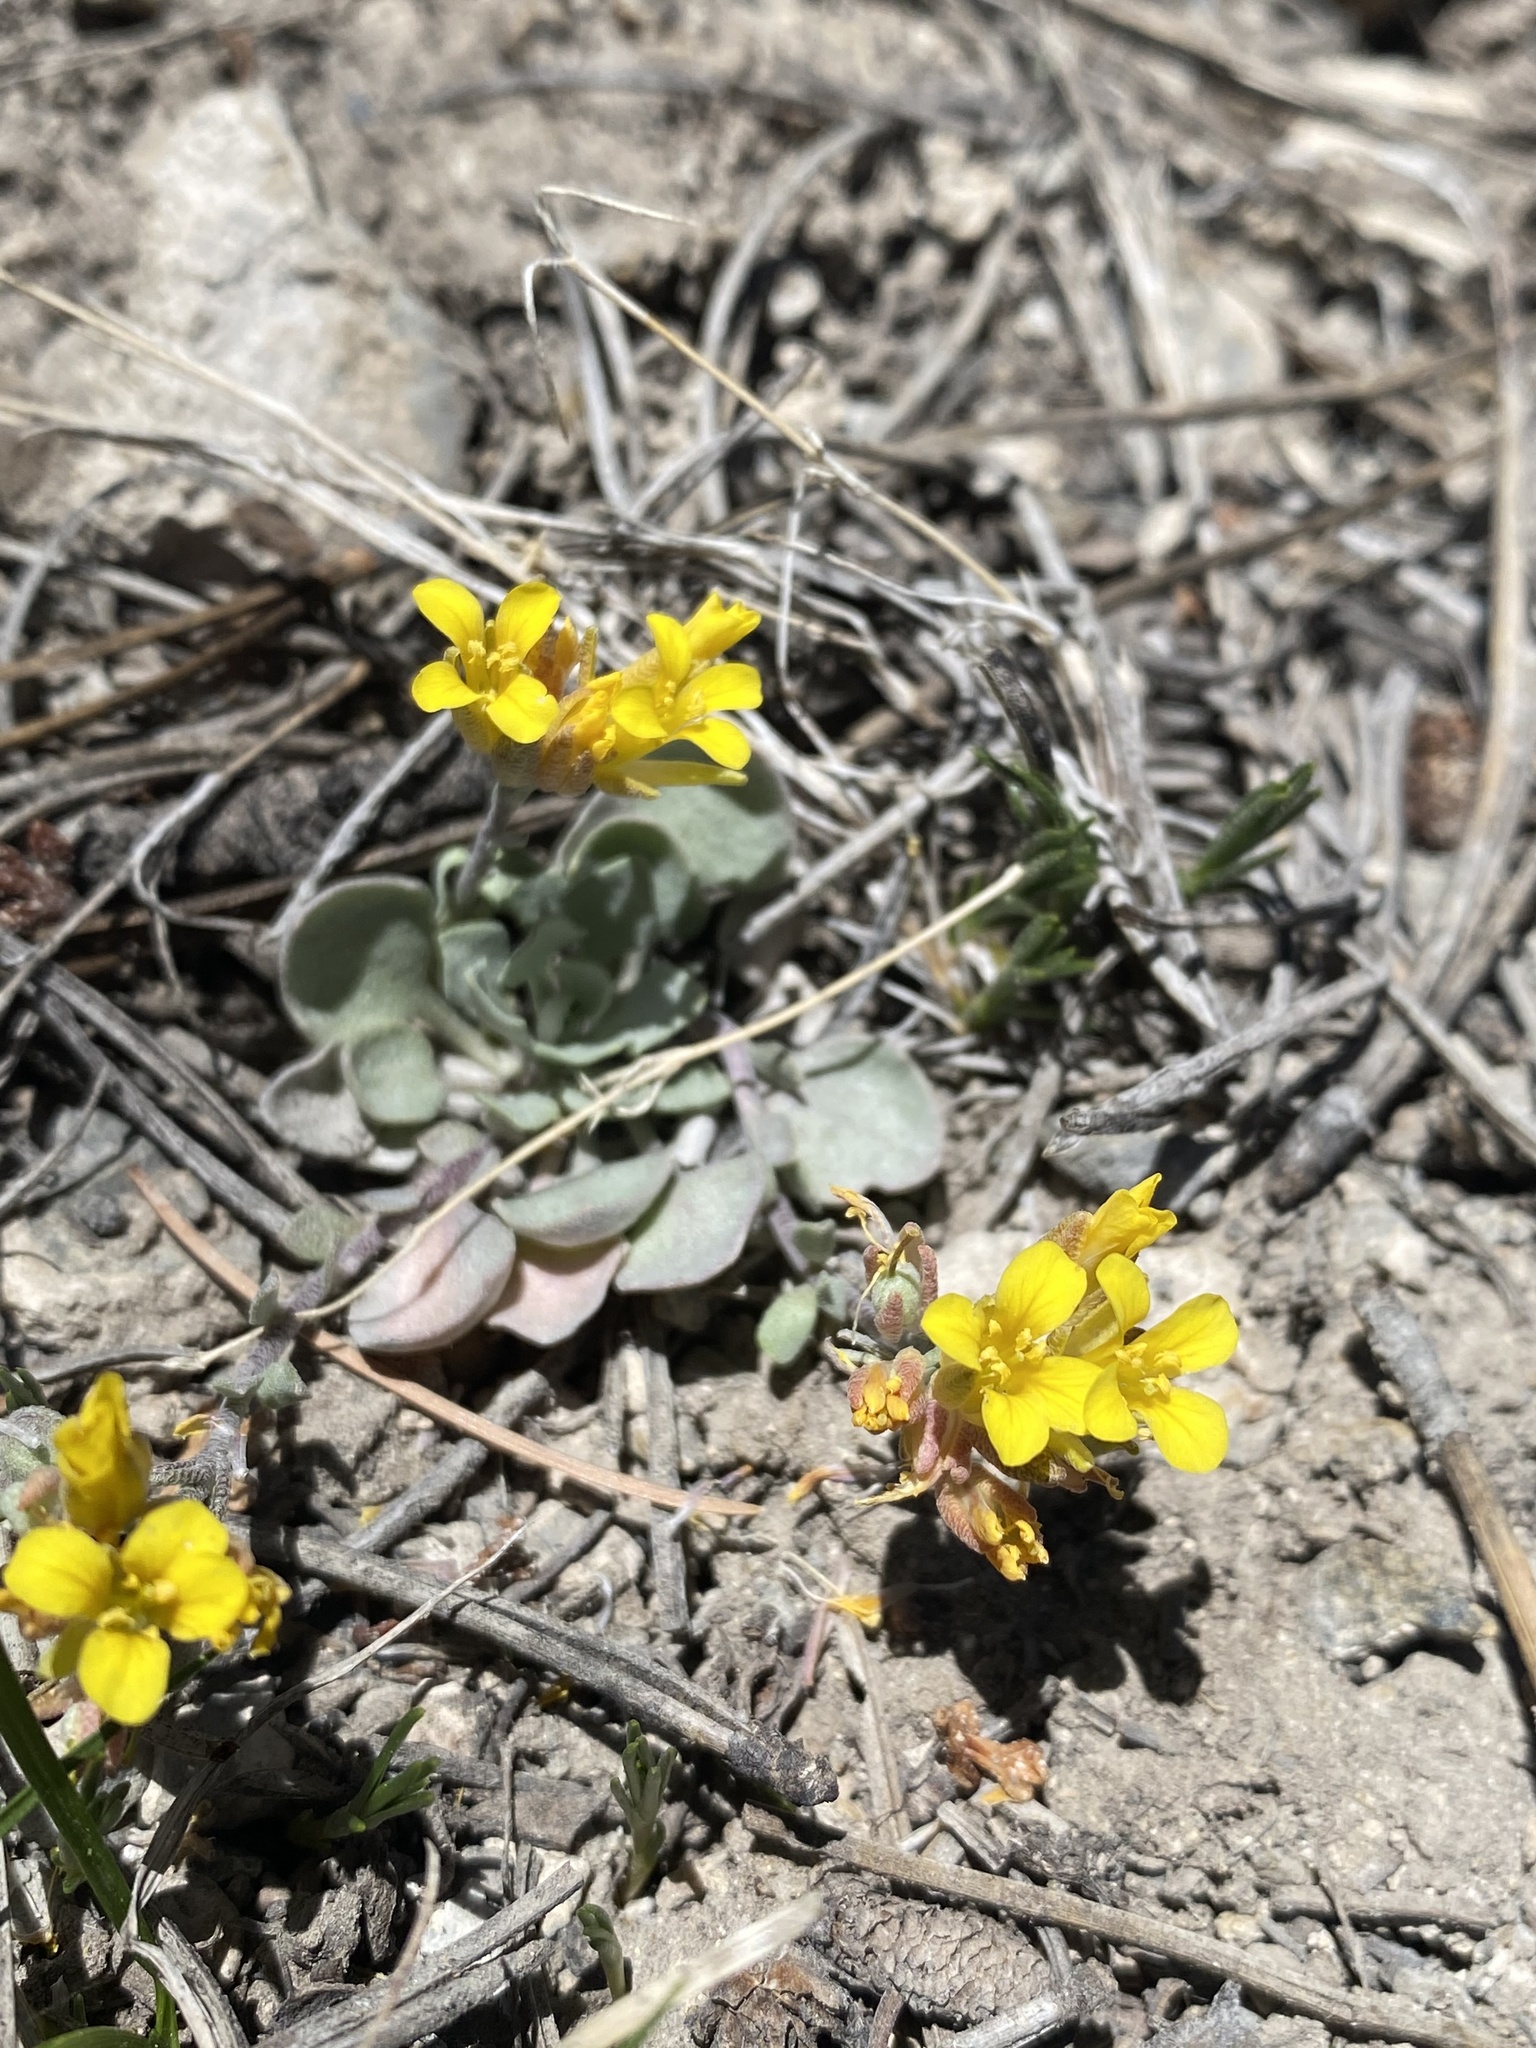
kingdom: Plantae
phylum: Tracheophyta
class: Magnoliopsida
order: Brassicales
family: Brassicaceae
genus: Physaria
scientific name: Physaria kingii
